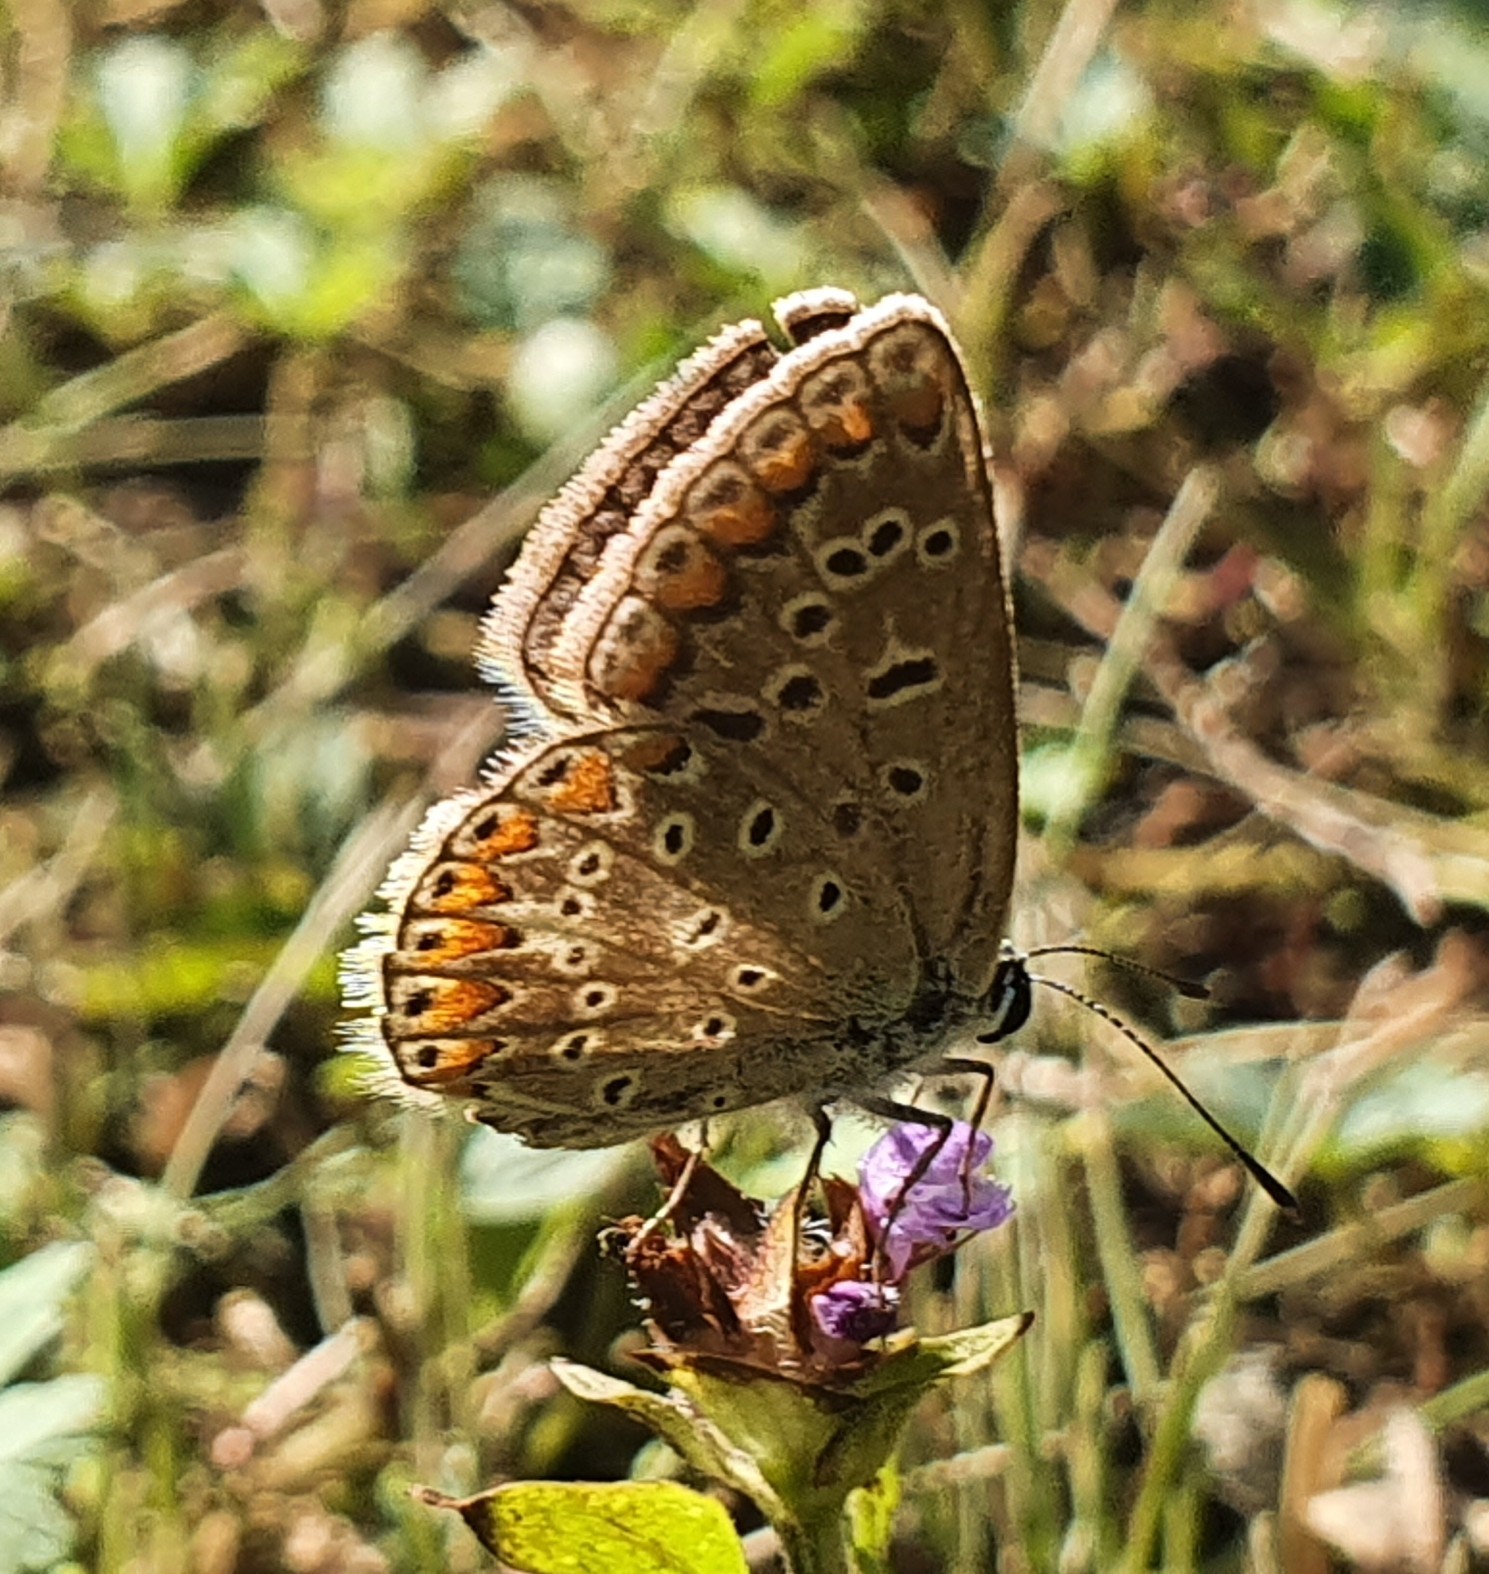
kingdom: Animalia
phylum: Arthropoda
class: Insecta
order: Lepidoptera
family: Lycaenidae
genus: Polyommatus
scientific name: Polyommatus icarus
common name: Common blue
